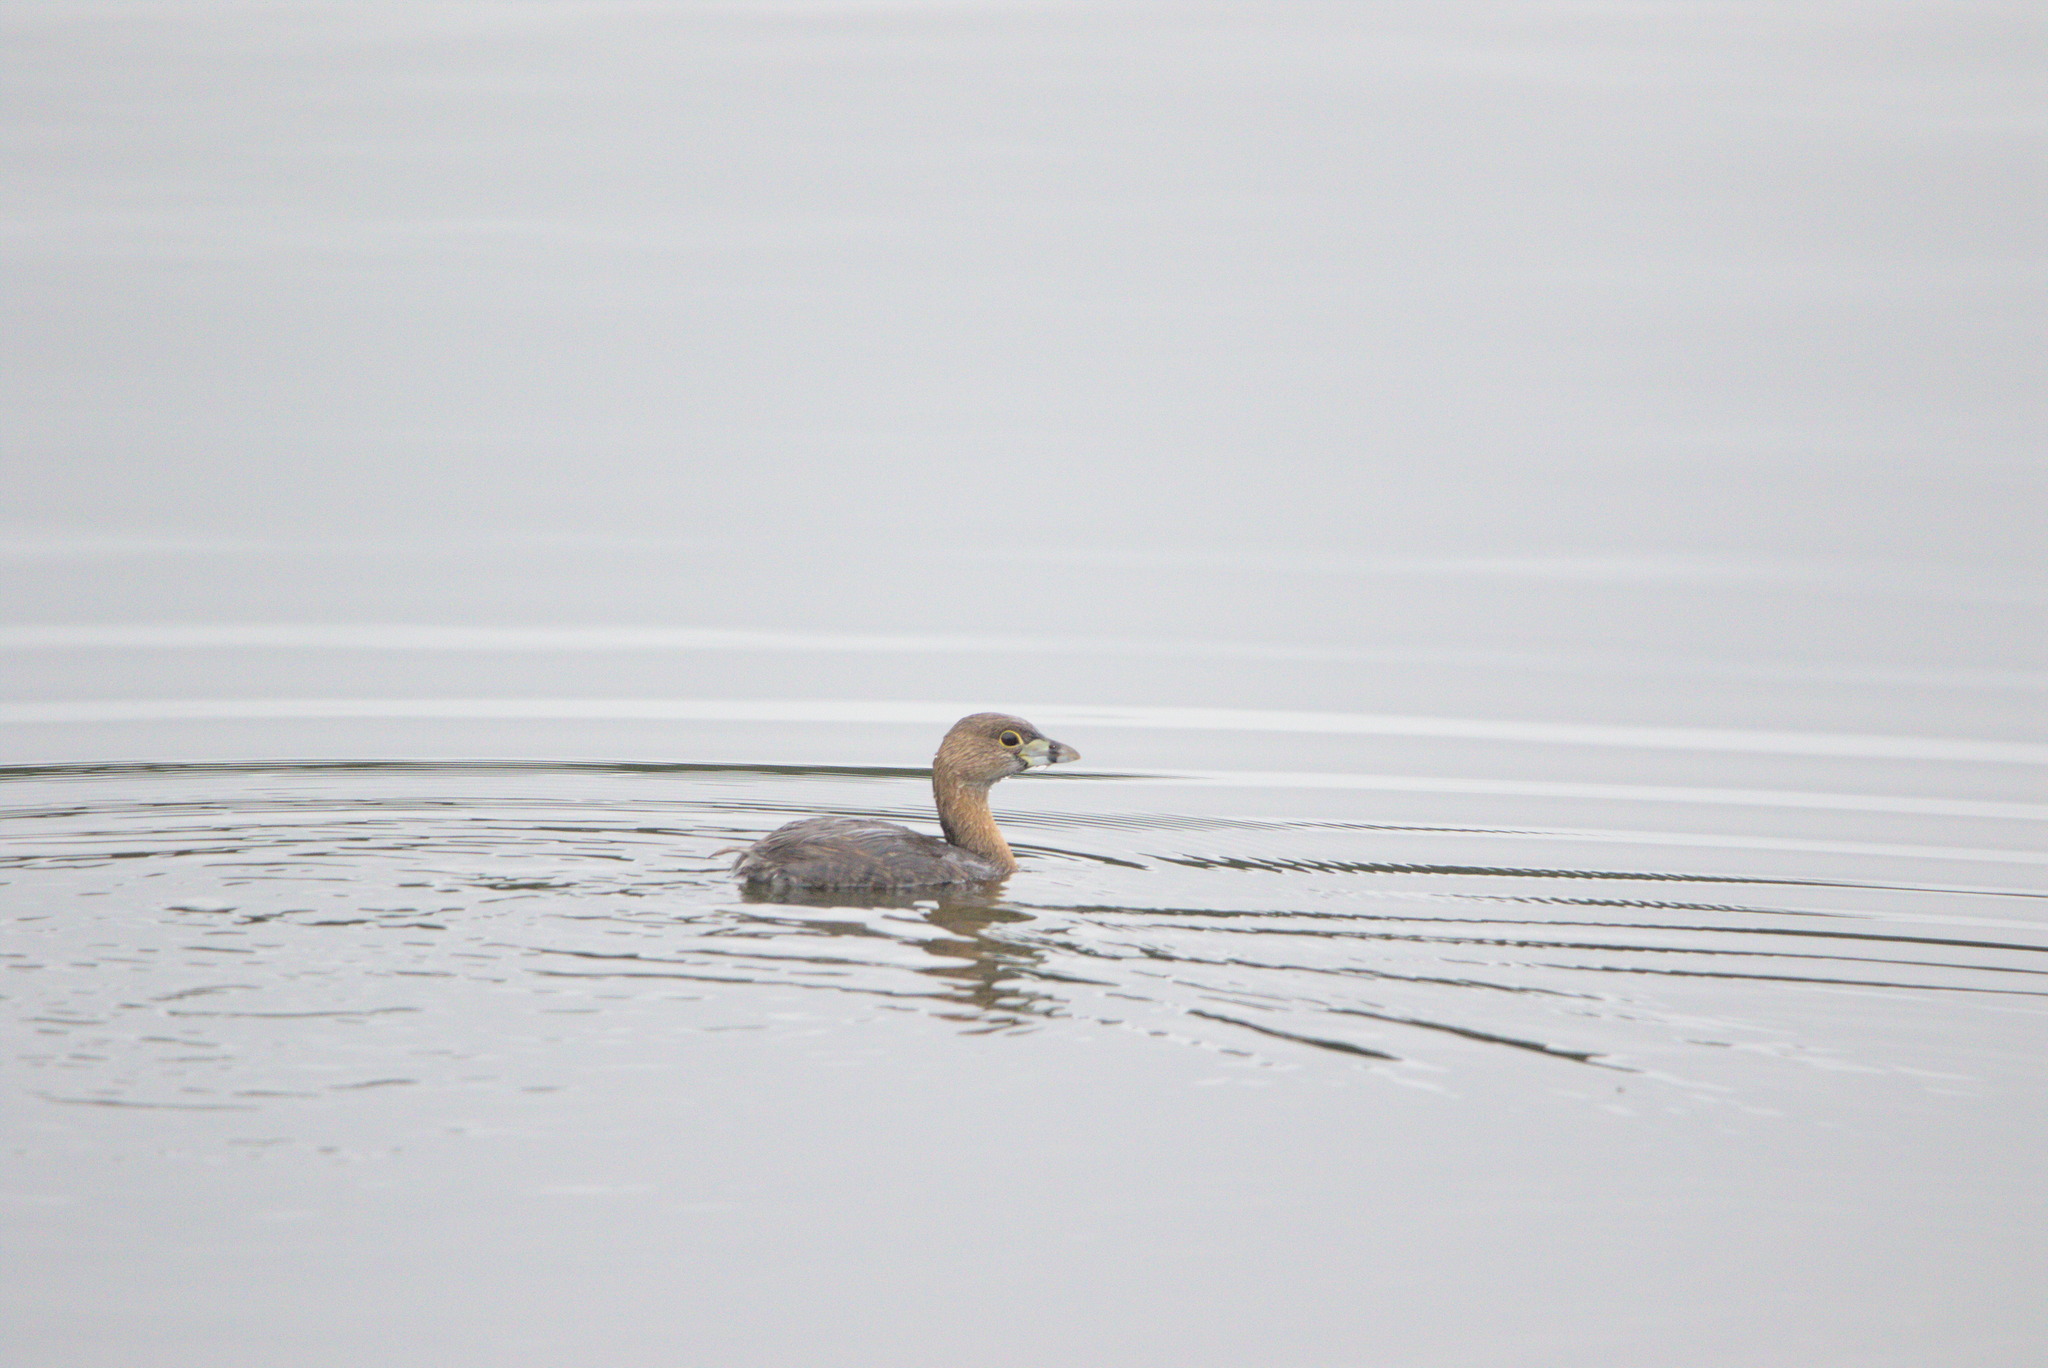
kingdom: Animalia
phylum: Chordata
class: Aves
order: Podicipediformes
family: Podicipedidae
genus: Podilymbus
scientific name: Podilymbus podiceps
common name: Pied-billed grebe
